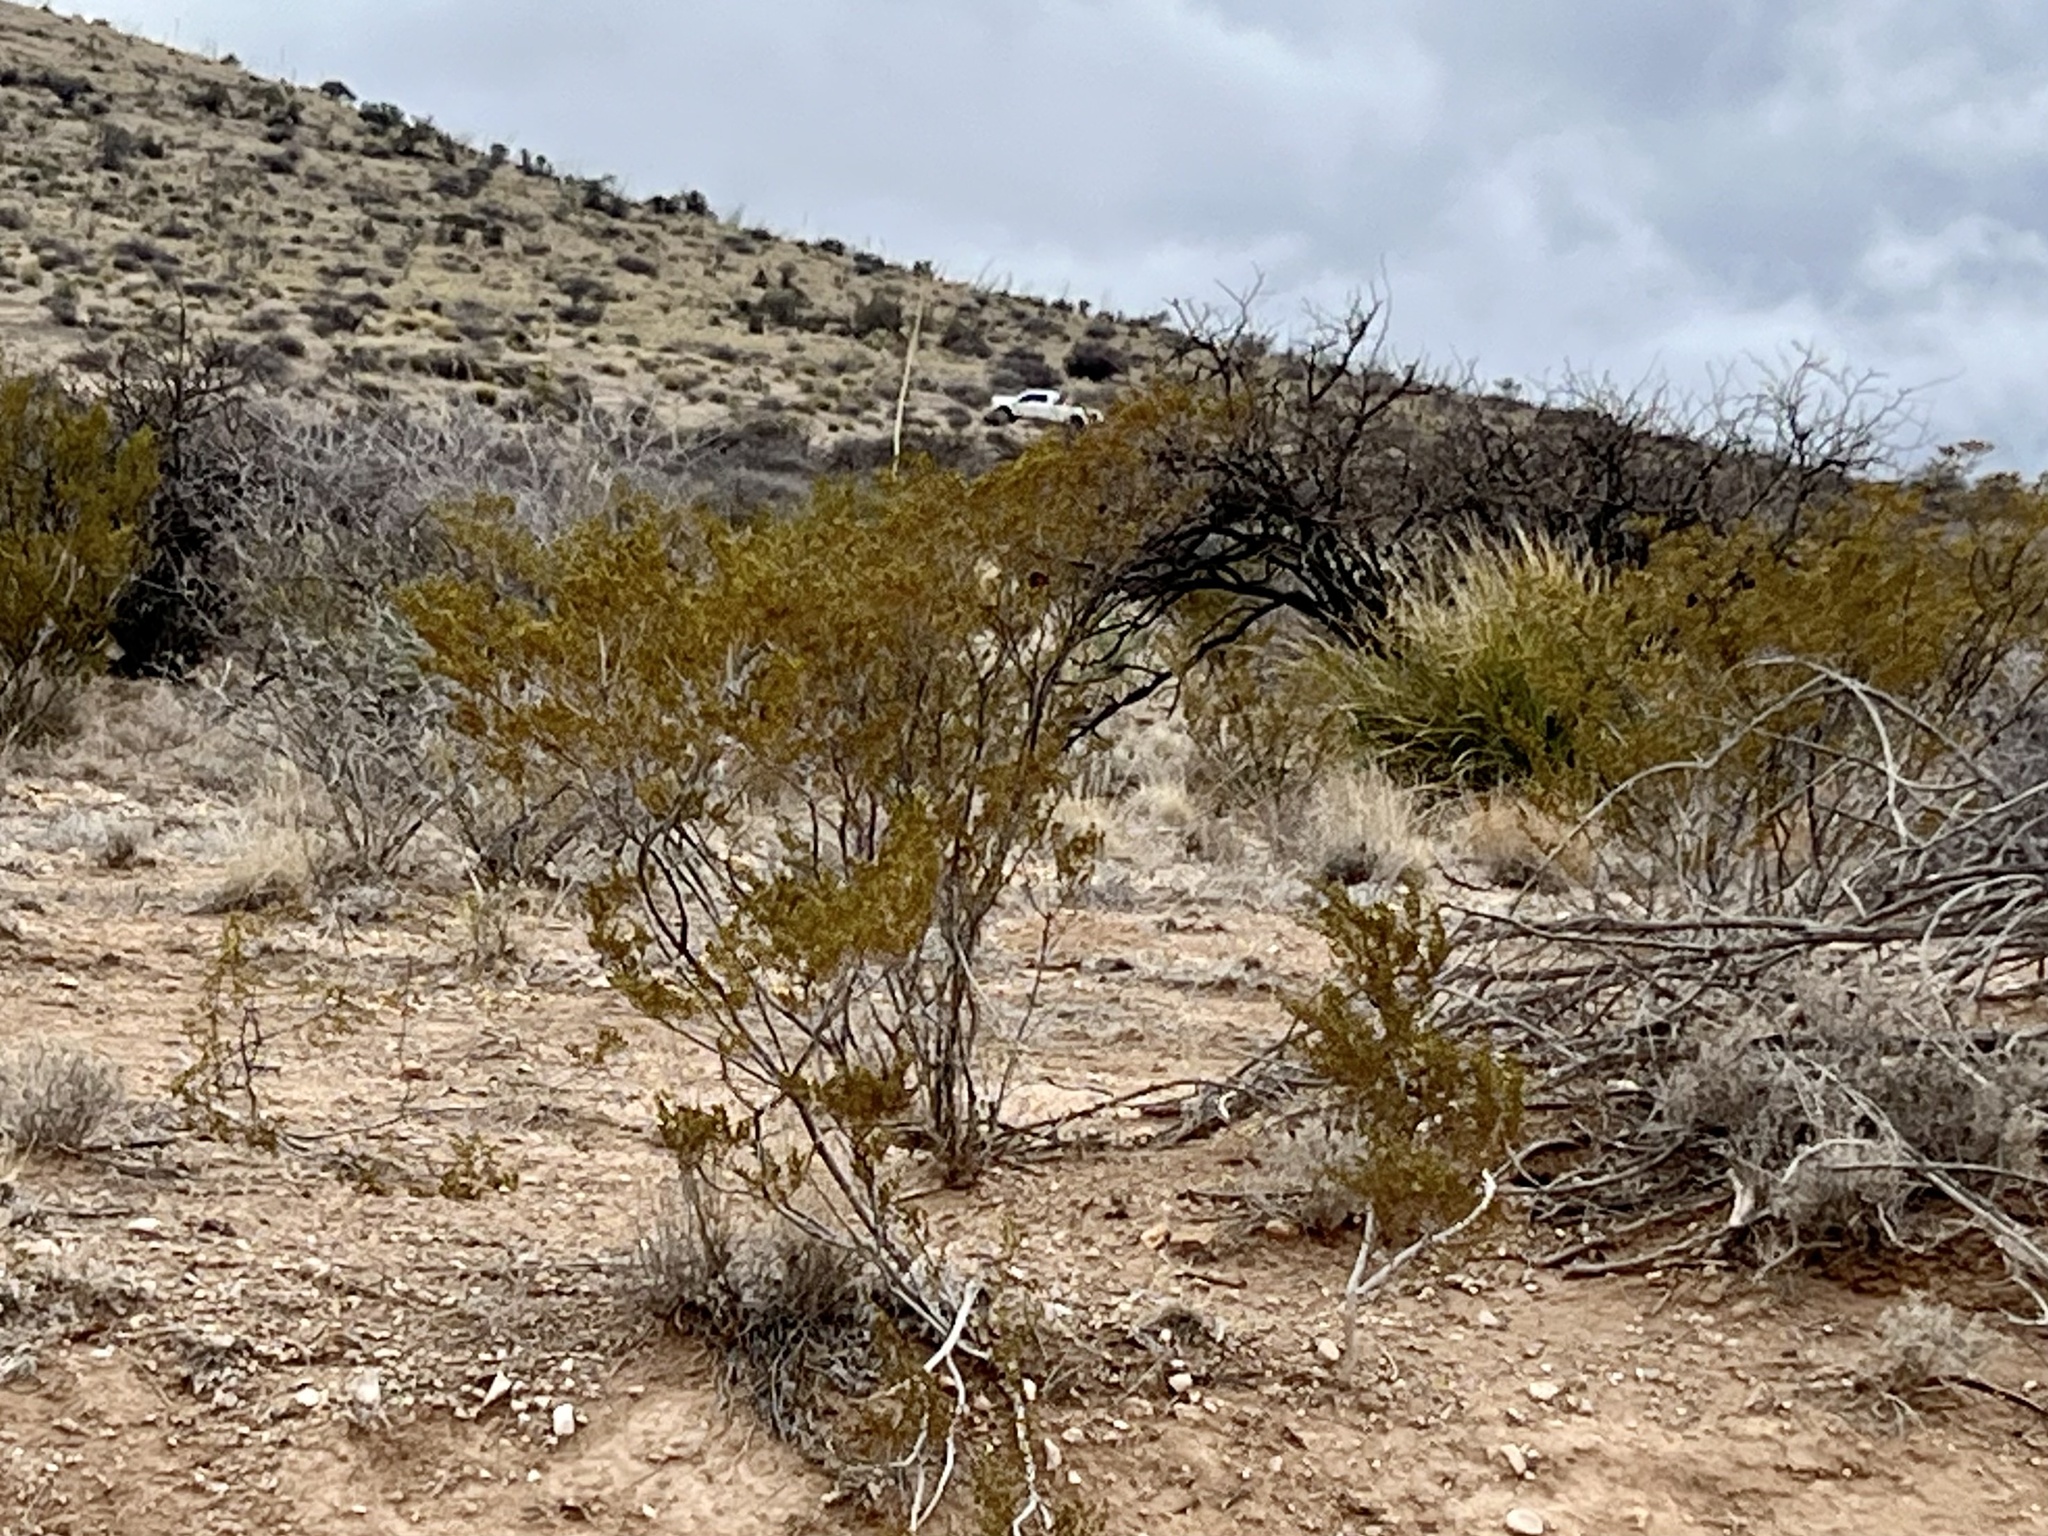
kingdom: Plantae
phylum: Tracheophyta
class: Magnoliopsida
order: Zygophyllales
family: Zygophyllaceae
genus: Larrea
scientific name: Larrea tridentata
